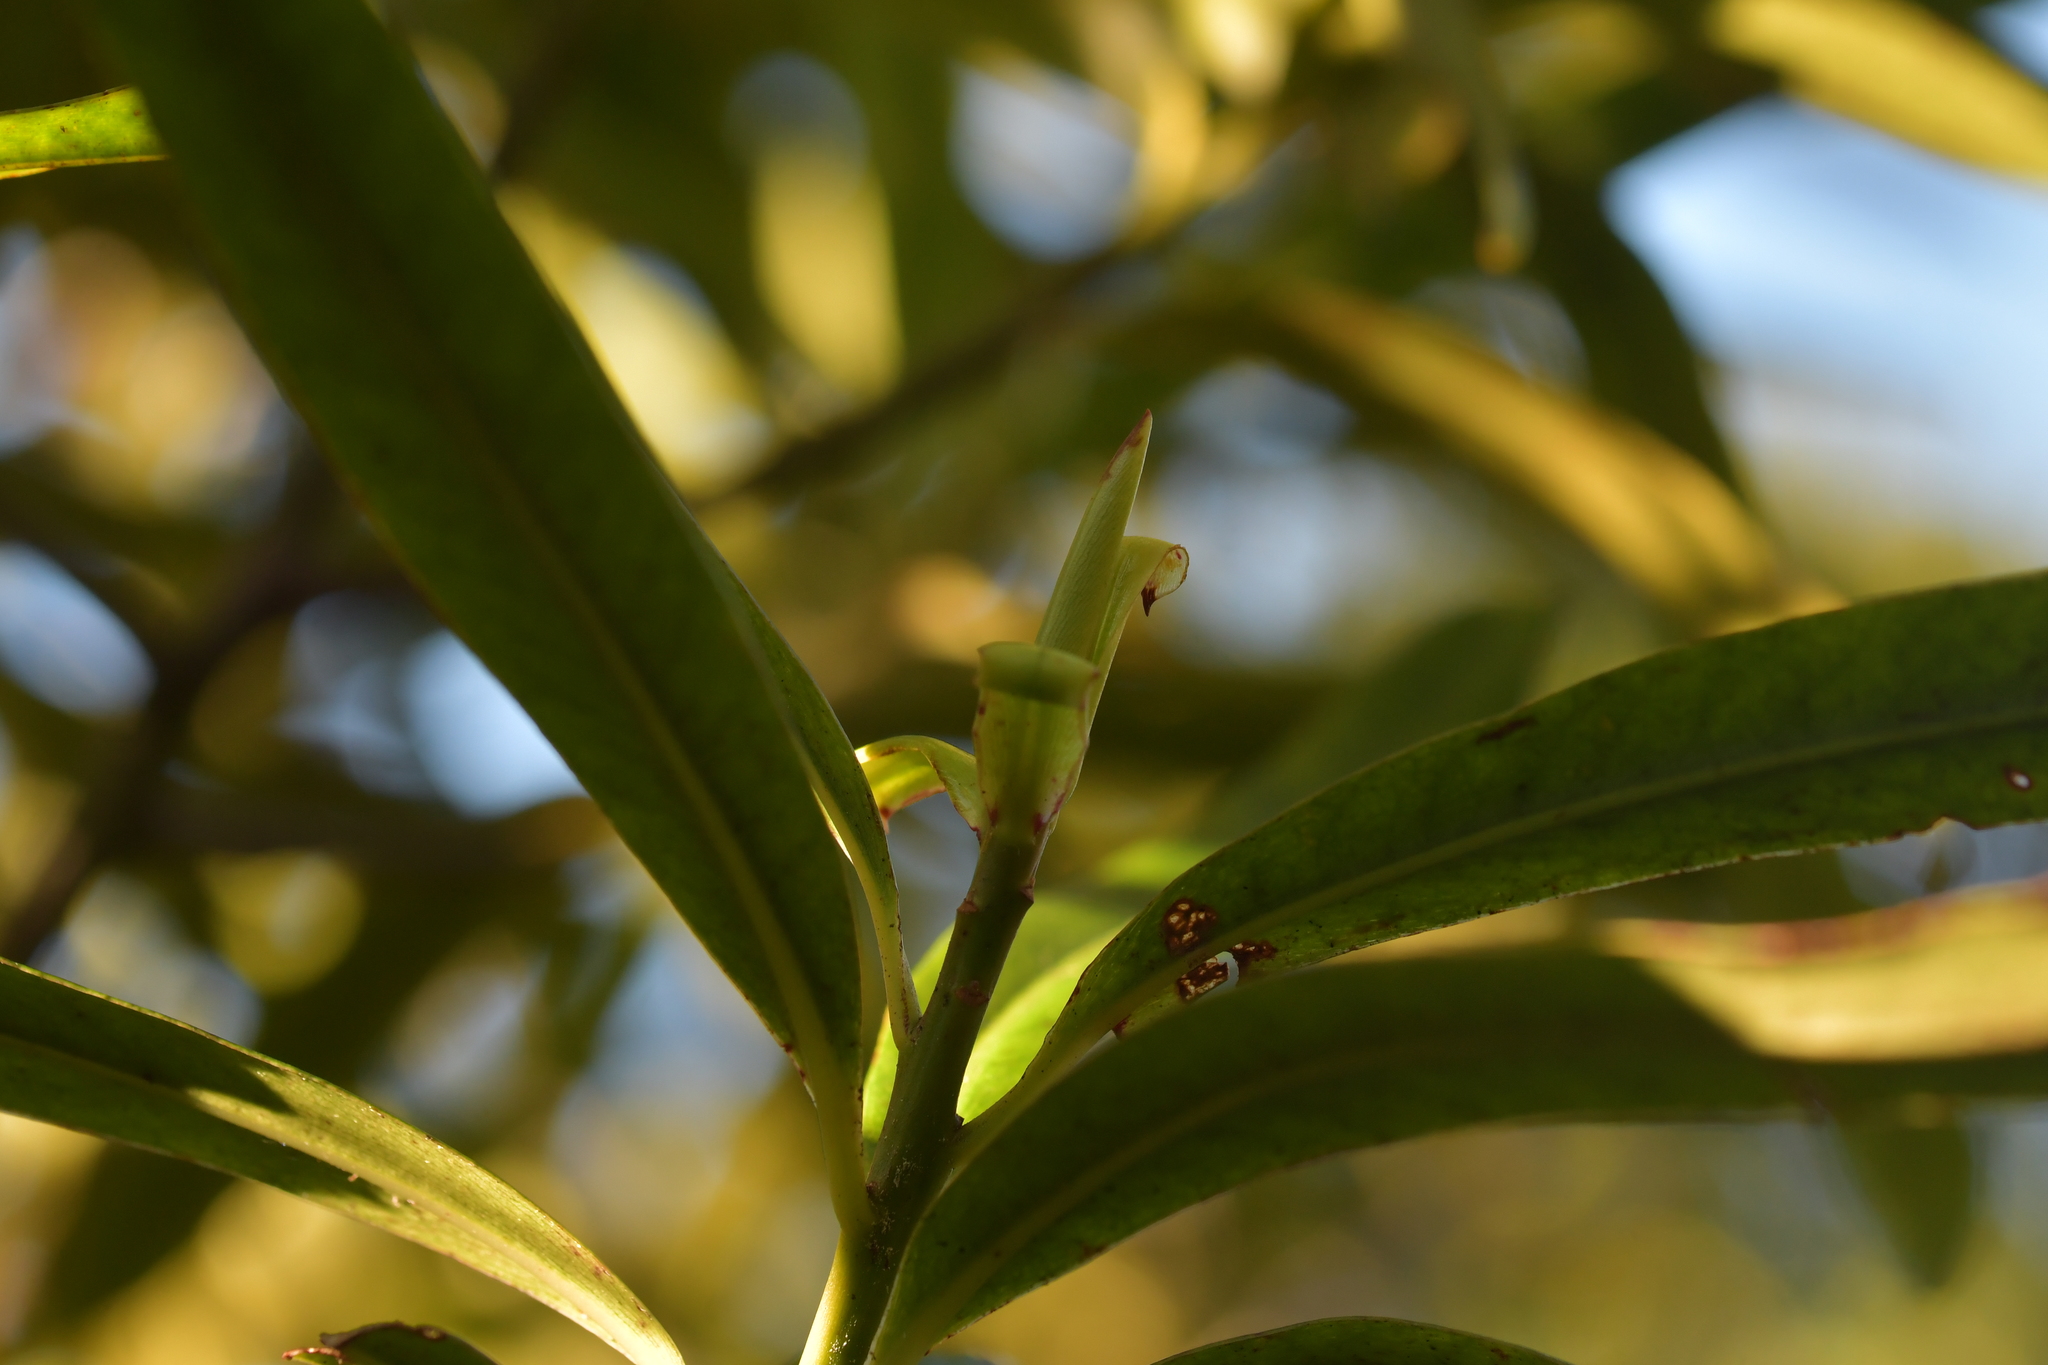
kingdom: Plantae
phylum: Tracheophyta
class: Magnoliopsida
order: Ericales
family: Primulaceae
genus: Myrsine
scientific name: Myrsine salicina
